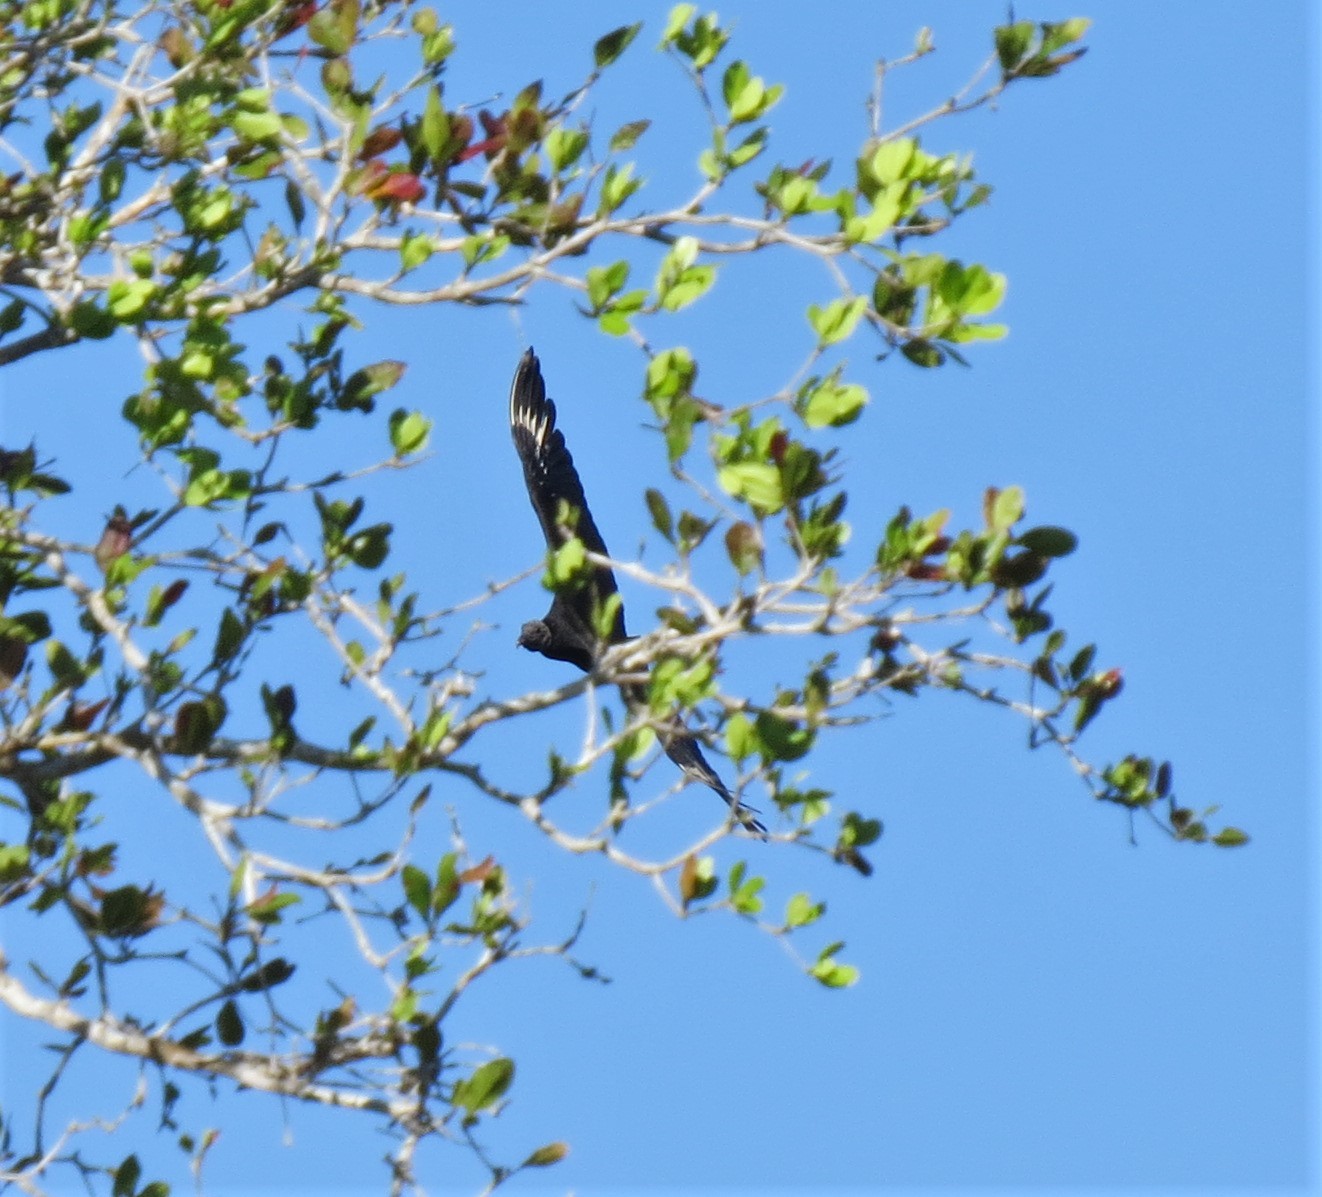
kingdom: Animalia
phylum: Chordata
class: Aves
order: Accipitriformes
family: Cathartidae
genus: Coragyps
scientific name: Coragyps atratus
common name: Black vulture
